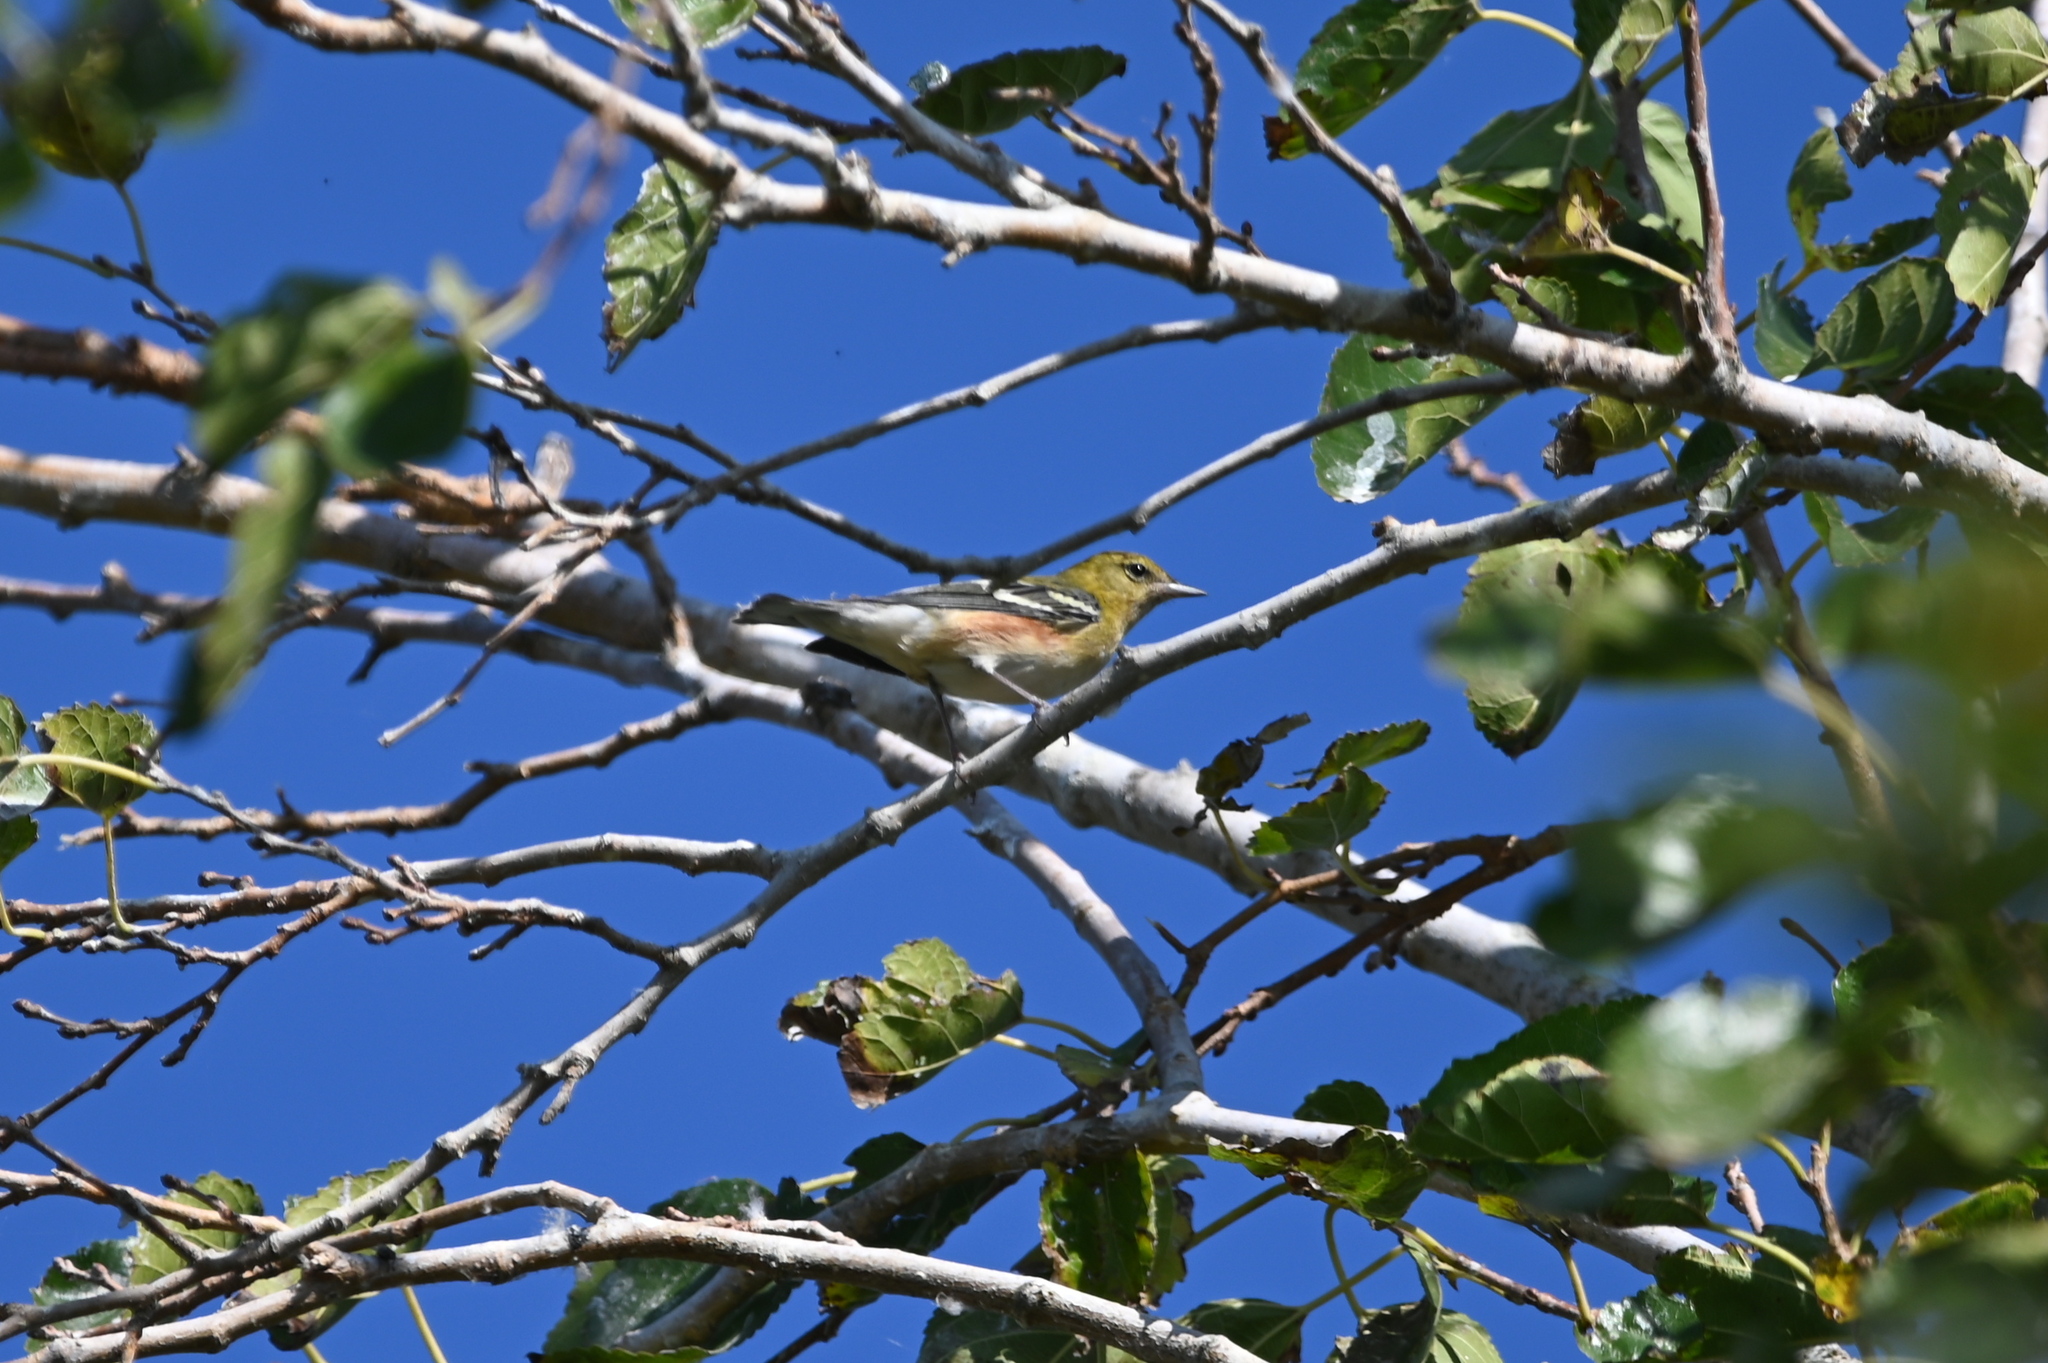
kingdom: Animalia
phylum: Chordata
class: Aves
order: Passeriformes
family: Parulidae
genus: Setophaga
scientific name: Setophaga castanea
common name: Bay-breasted warbler
